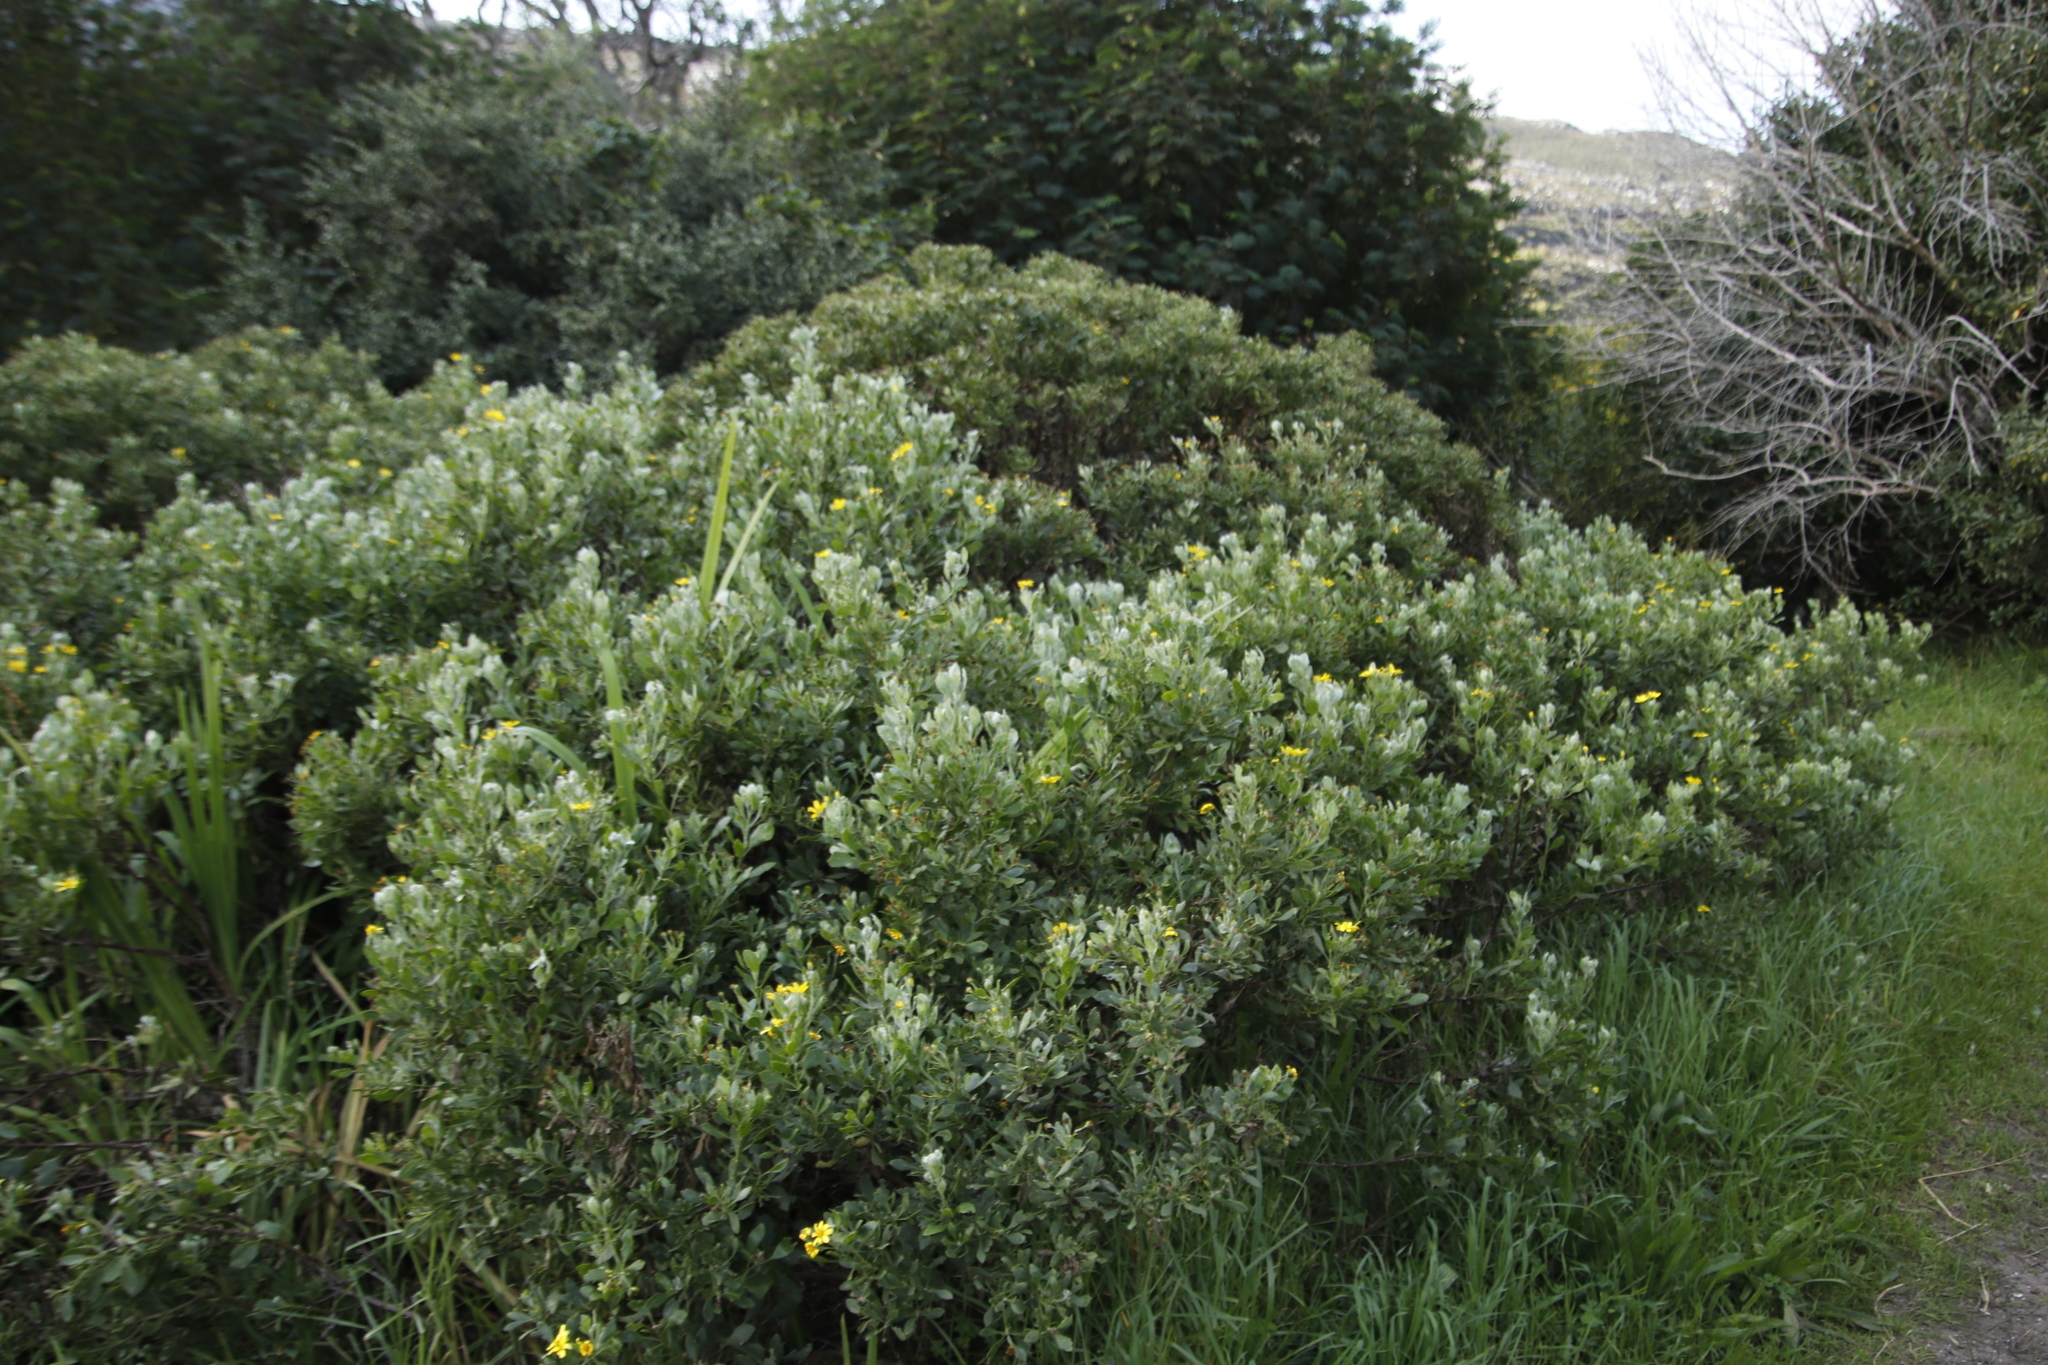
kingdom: Plantae
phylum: Tracheophyta
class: Magnoliopsida
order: Asterales
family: Asteraceae
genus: Osteospermum
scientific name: Osteospermum moniliferum
